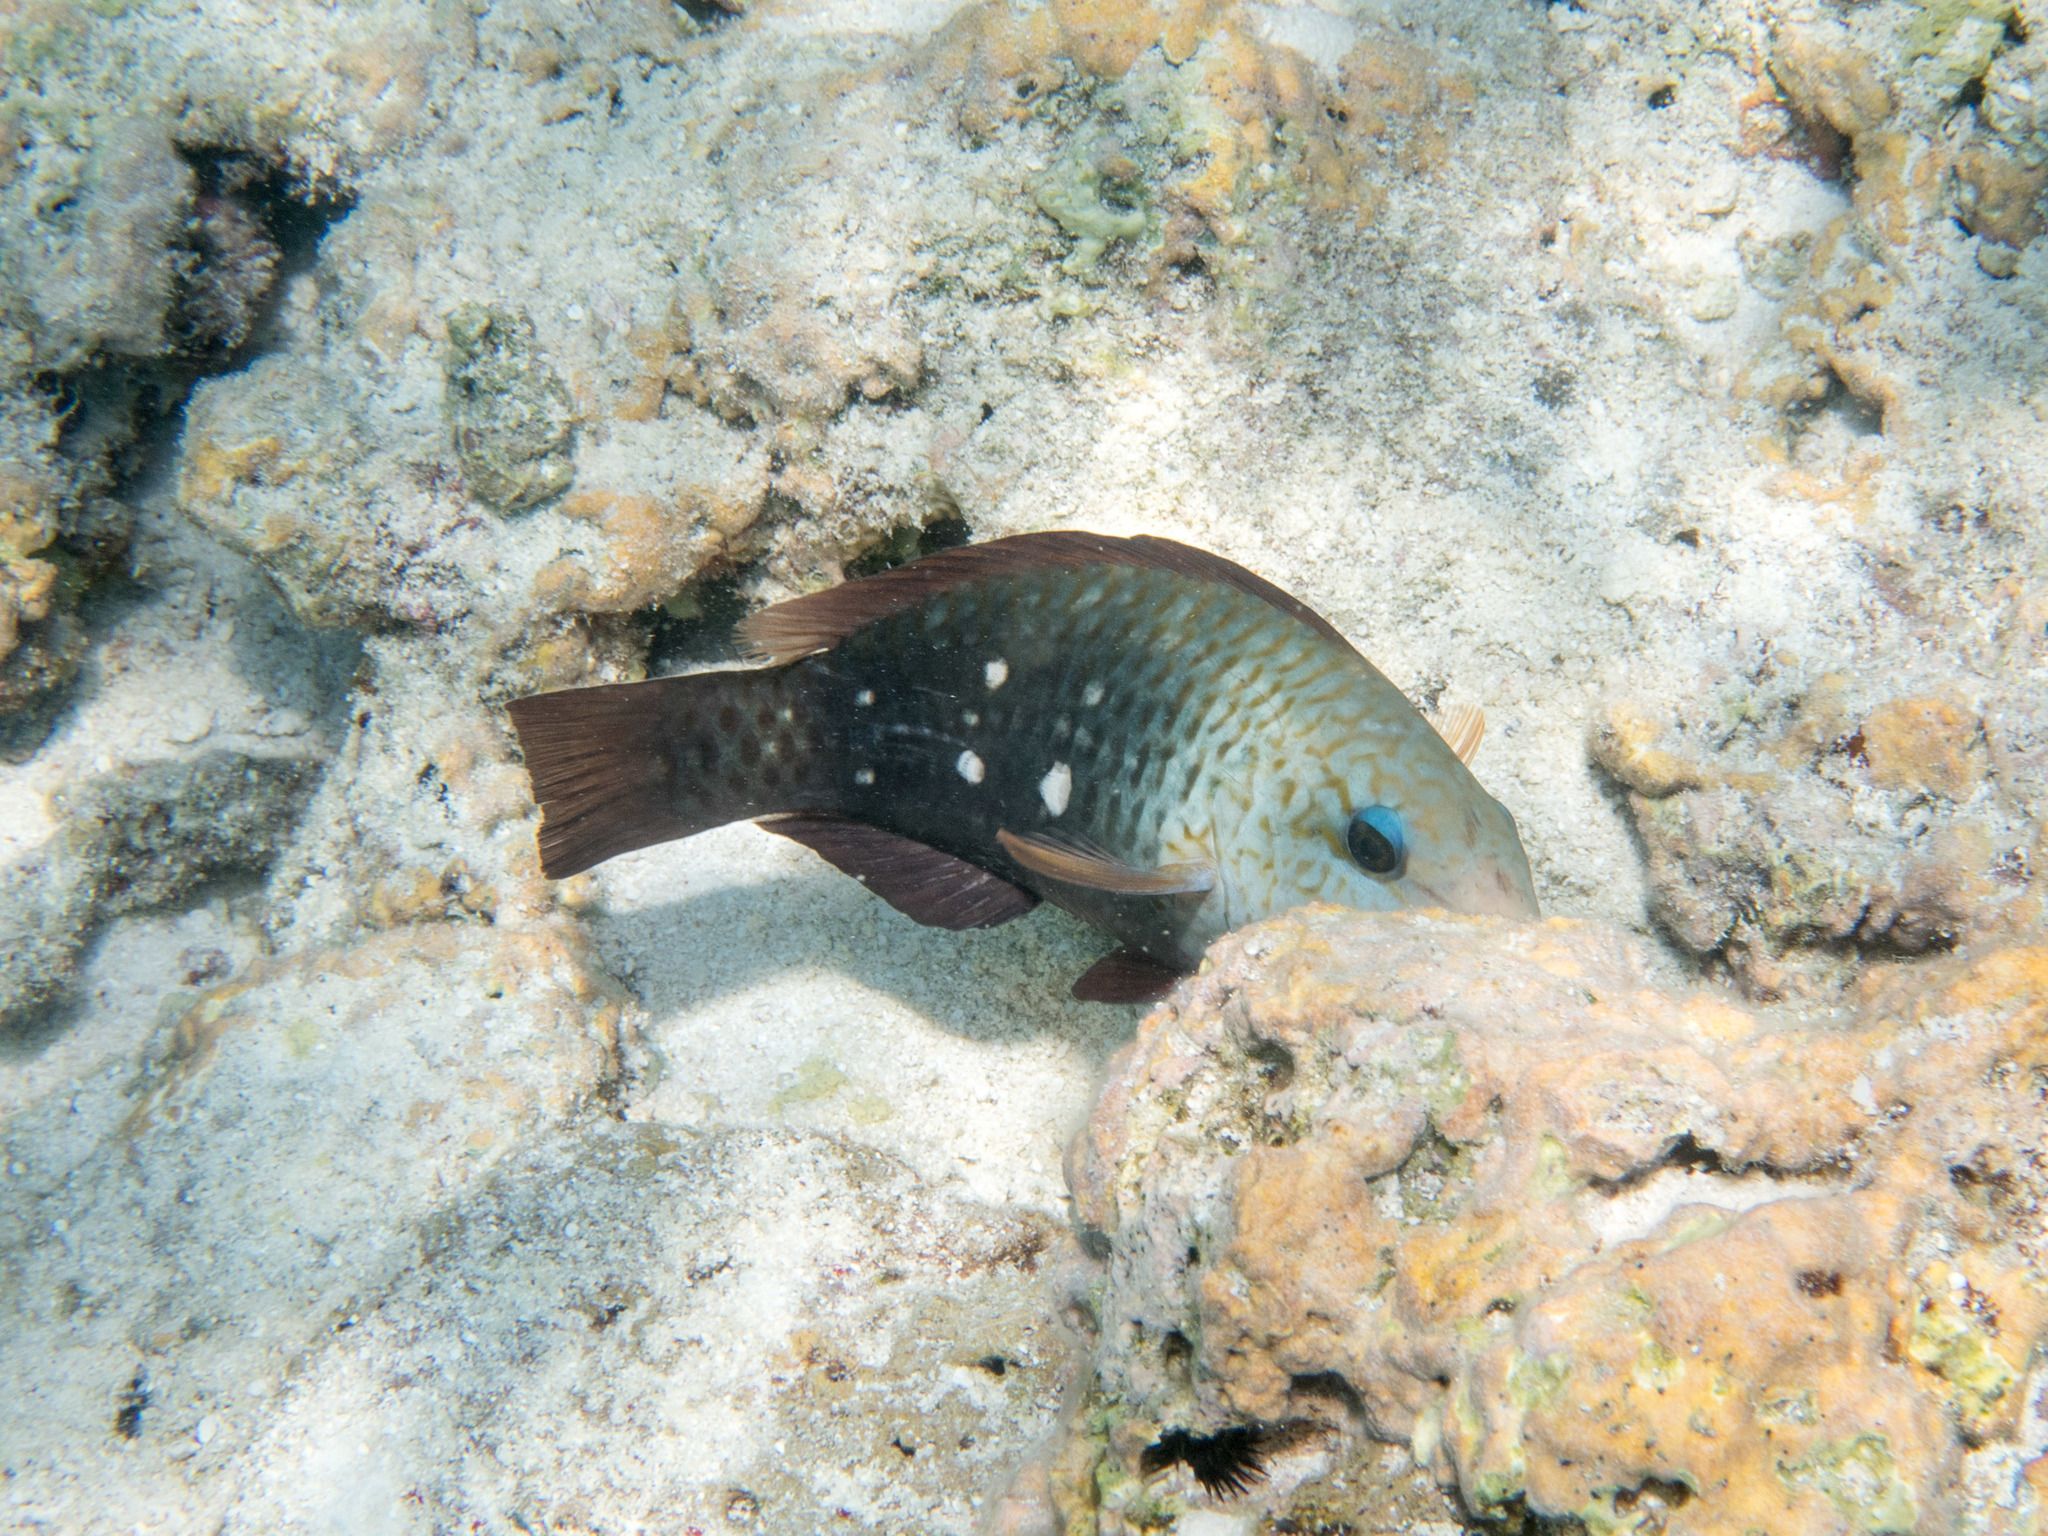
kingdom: Animalia
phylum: Chordata
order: Perciformes
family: Scaridae
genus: Chlorurus
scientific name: Chlorurus sordidus
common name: Bullethead parrotfish
